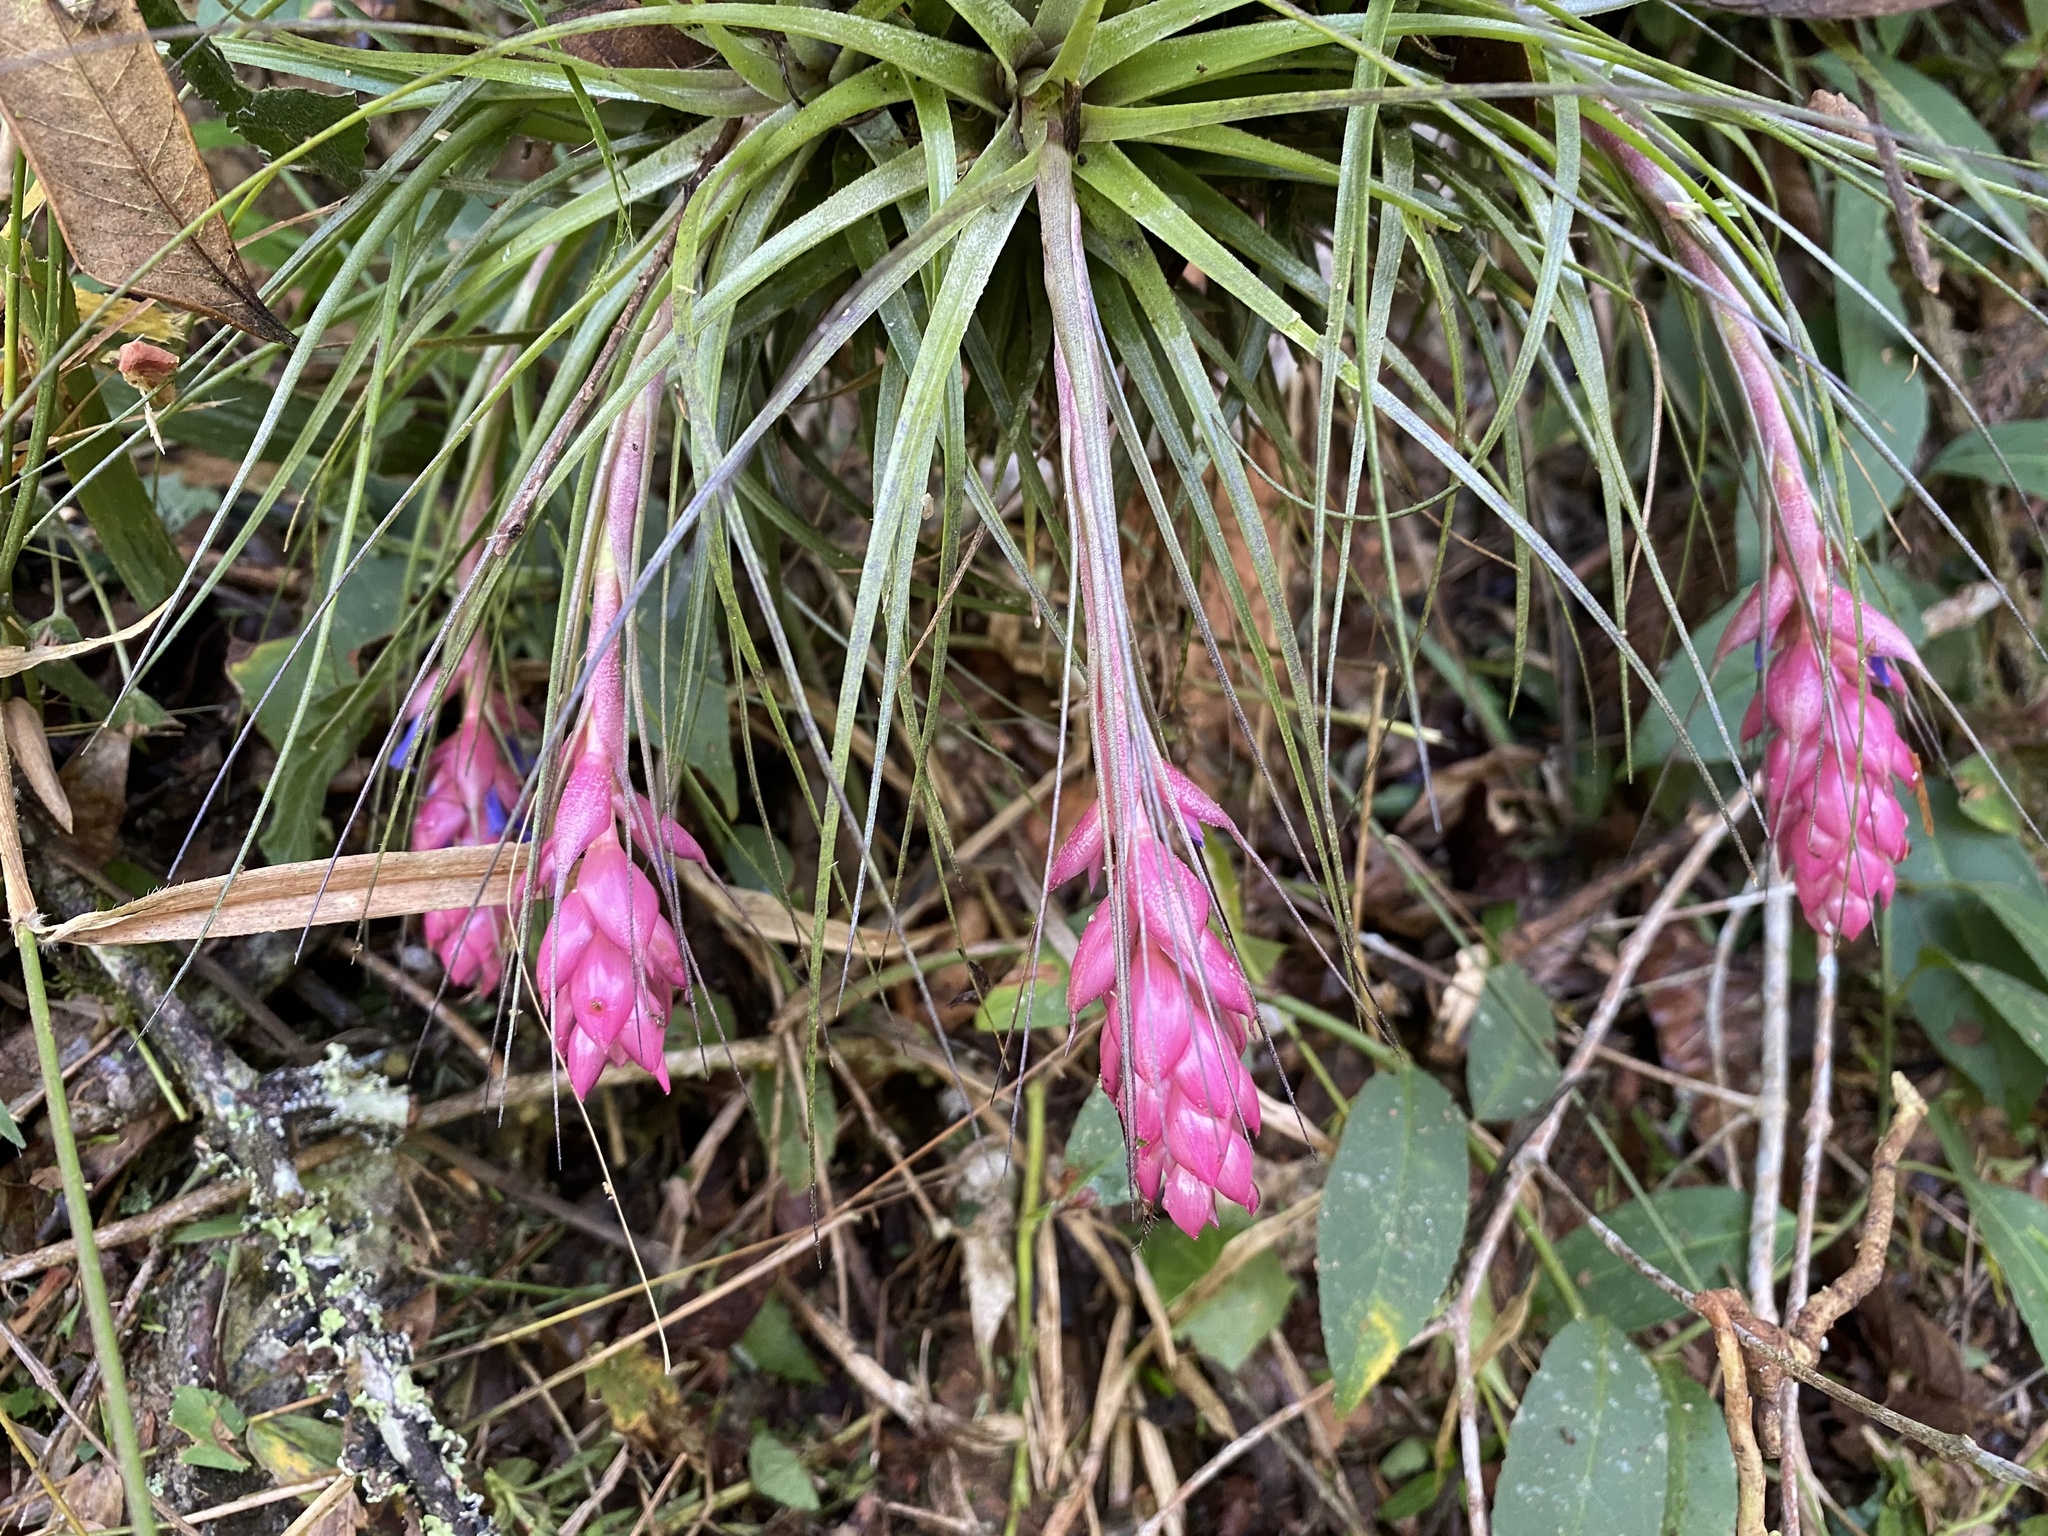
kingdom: Plantae
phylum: Tracheophyta
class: Liliopsida
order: Poales
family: Bromeliaceae
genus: Tillandsia
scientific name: Tillandsia stricta
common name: Airplant
